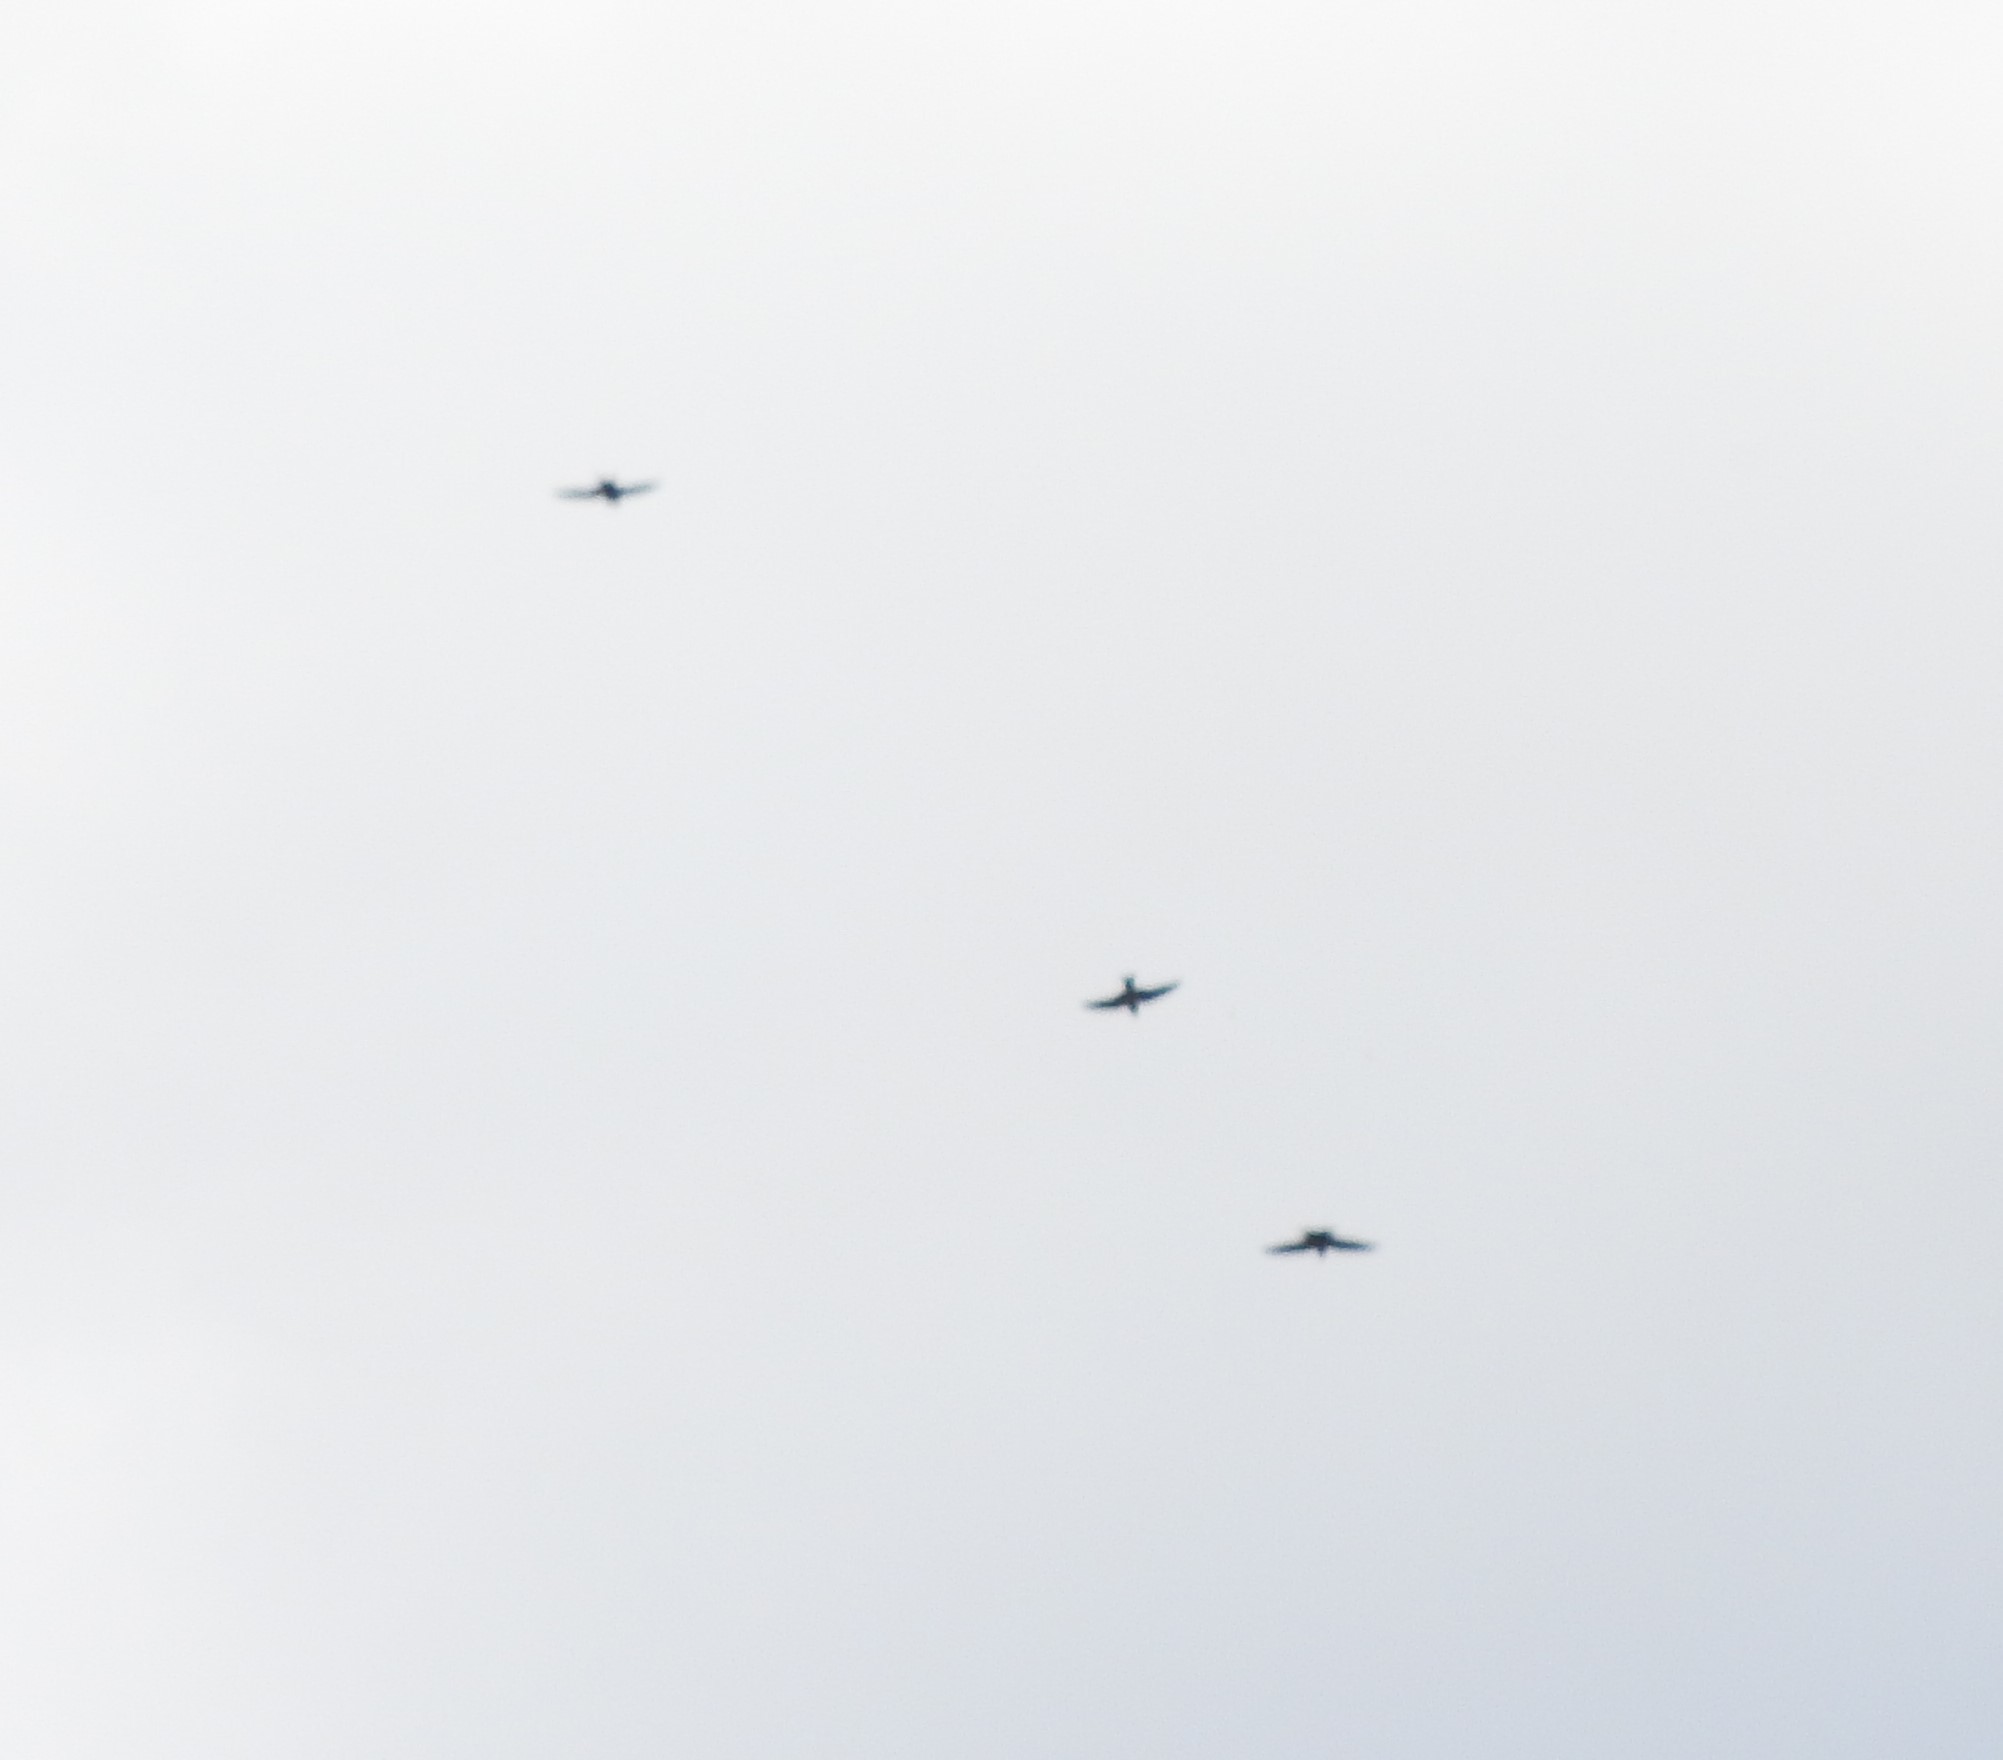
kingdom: Animalia
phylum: Chordata
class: Aves
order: Passeriformes
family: Hirundinidae
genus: Hirundo
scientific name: Hirundo rustica
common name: Barn swallow
